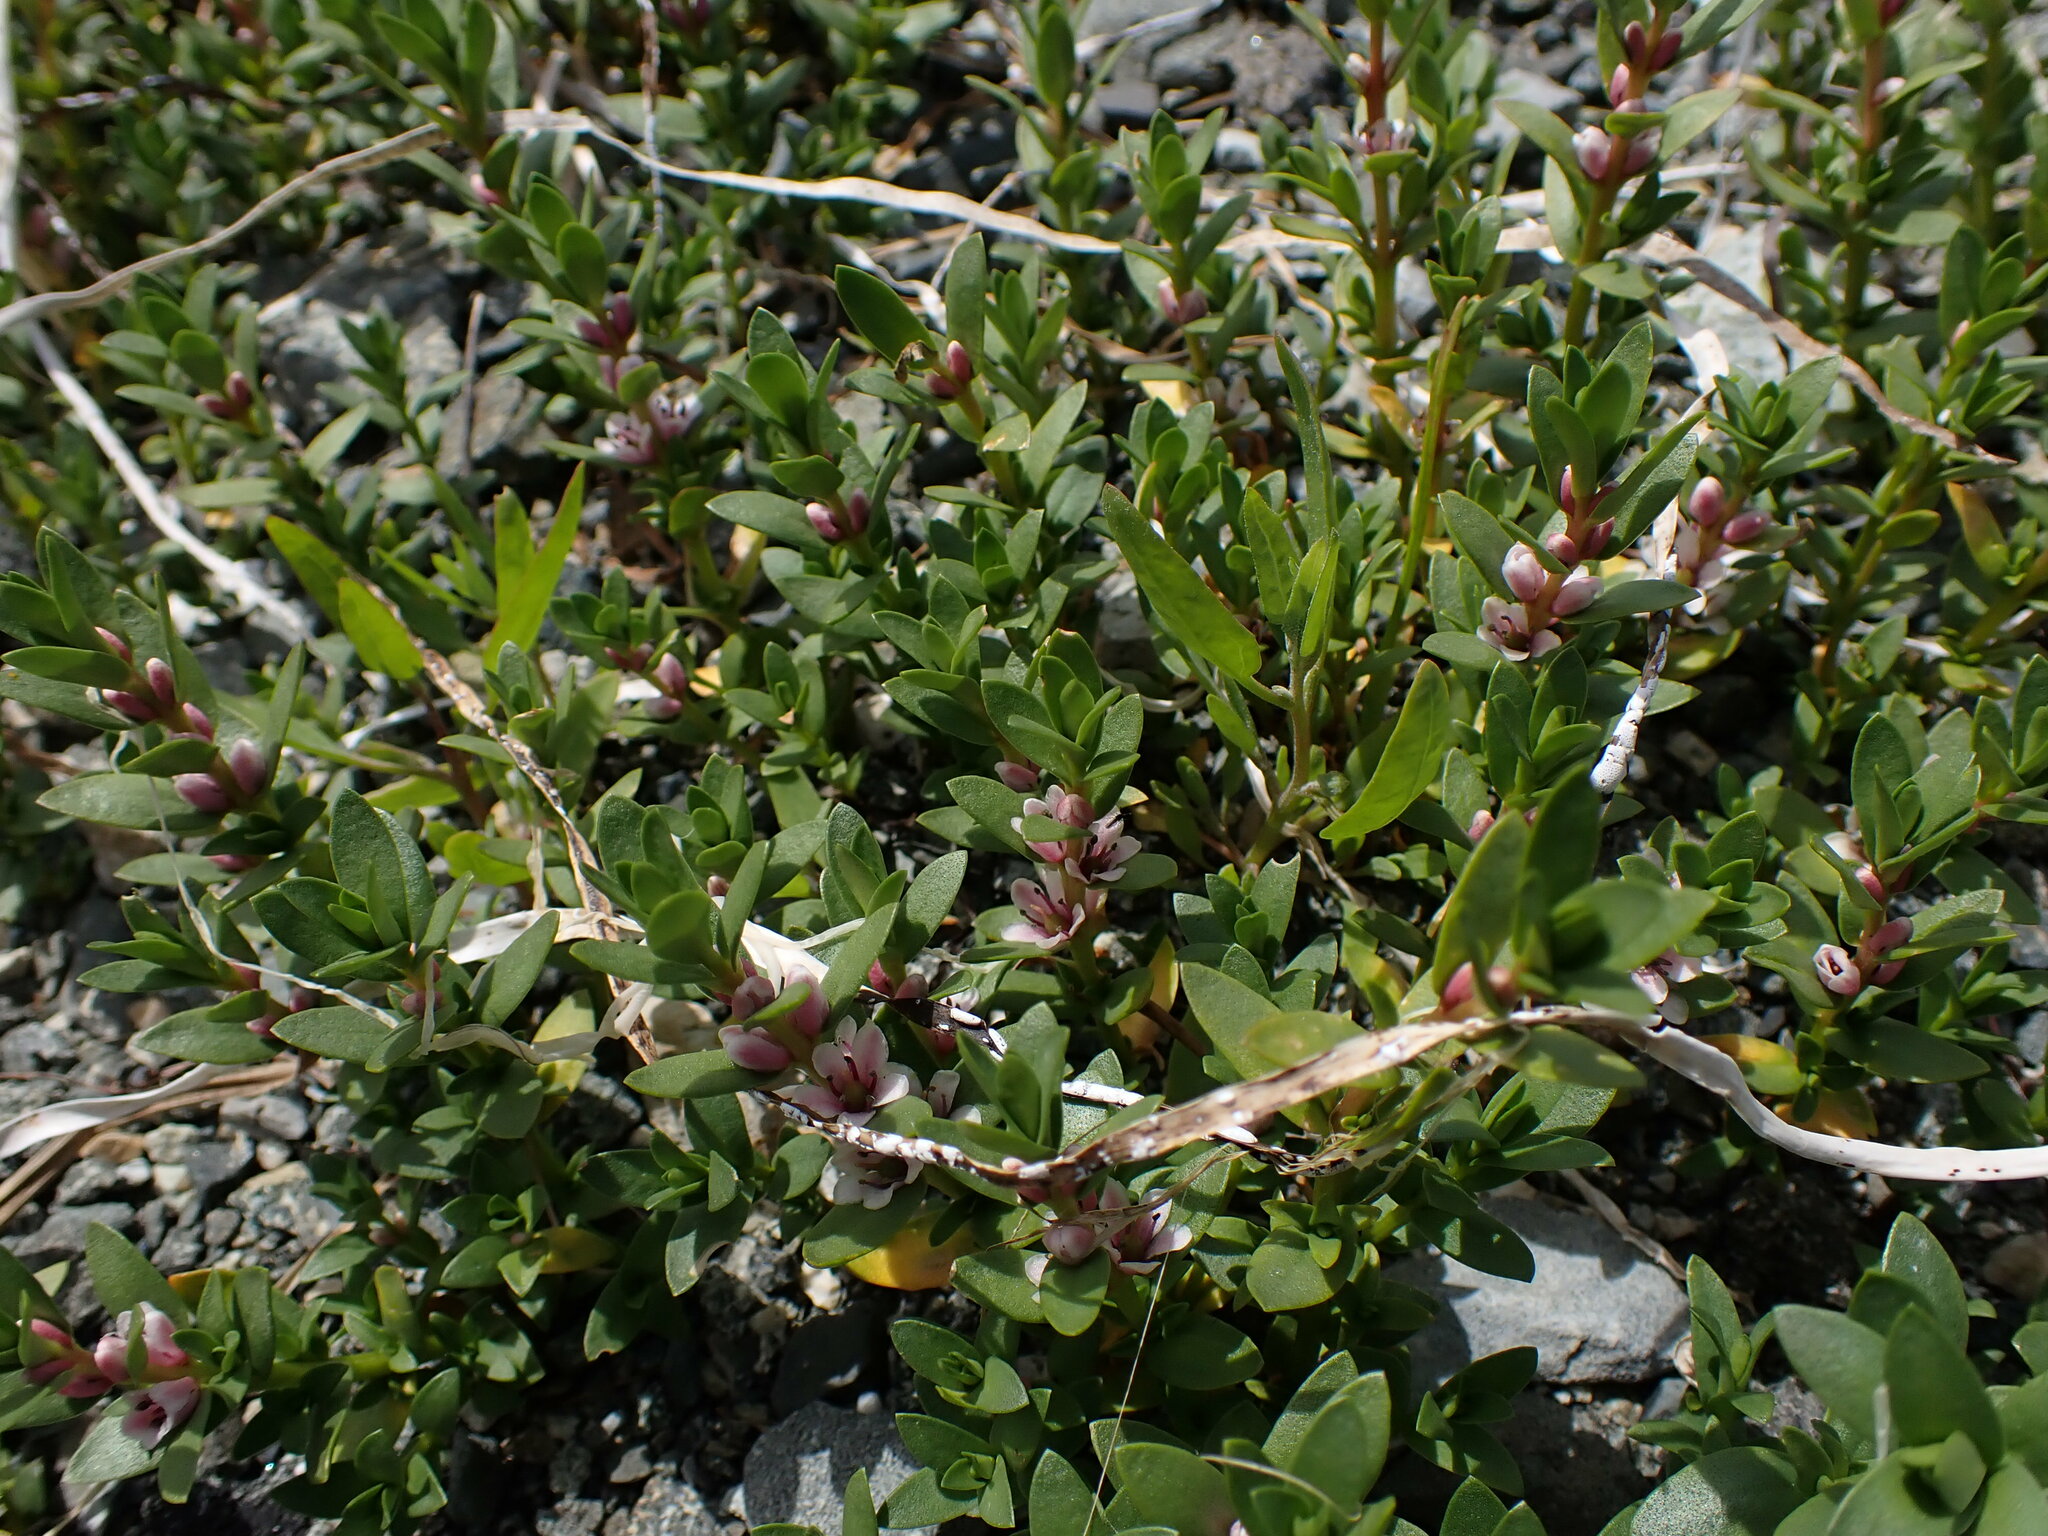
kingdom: Plantae
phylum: Tracheophyta
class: Magnoliopsida
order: Ericales
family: Primulaceae
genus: Lysimachia
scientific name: Lysimachia maritima
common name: Sea milkwort
